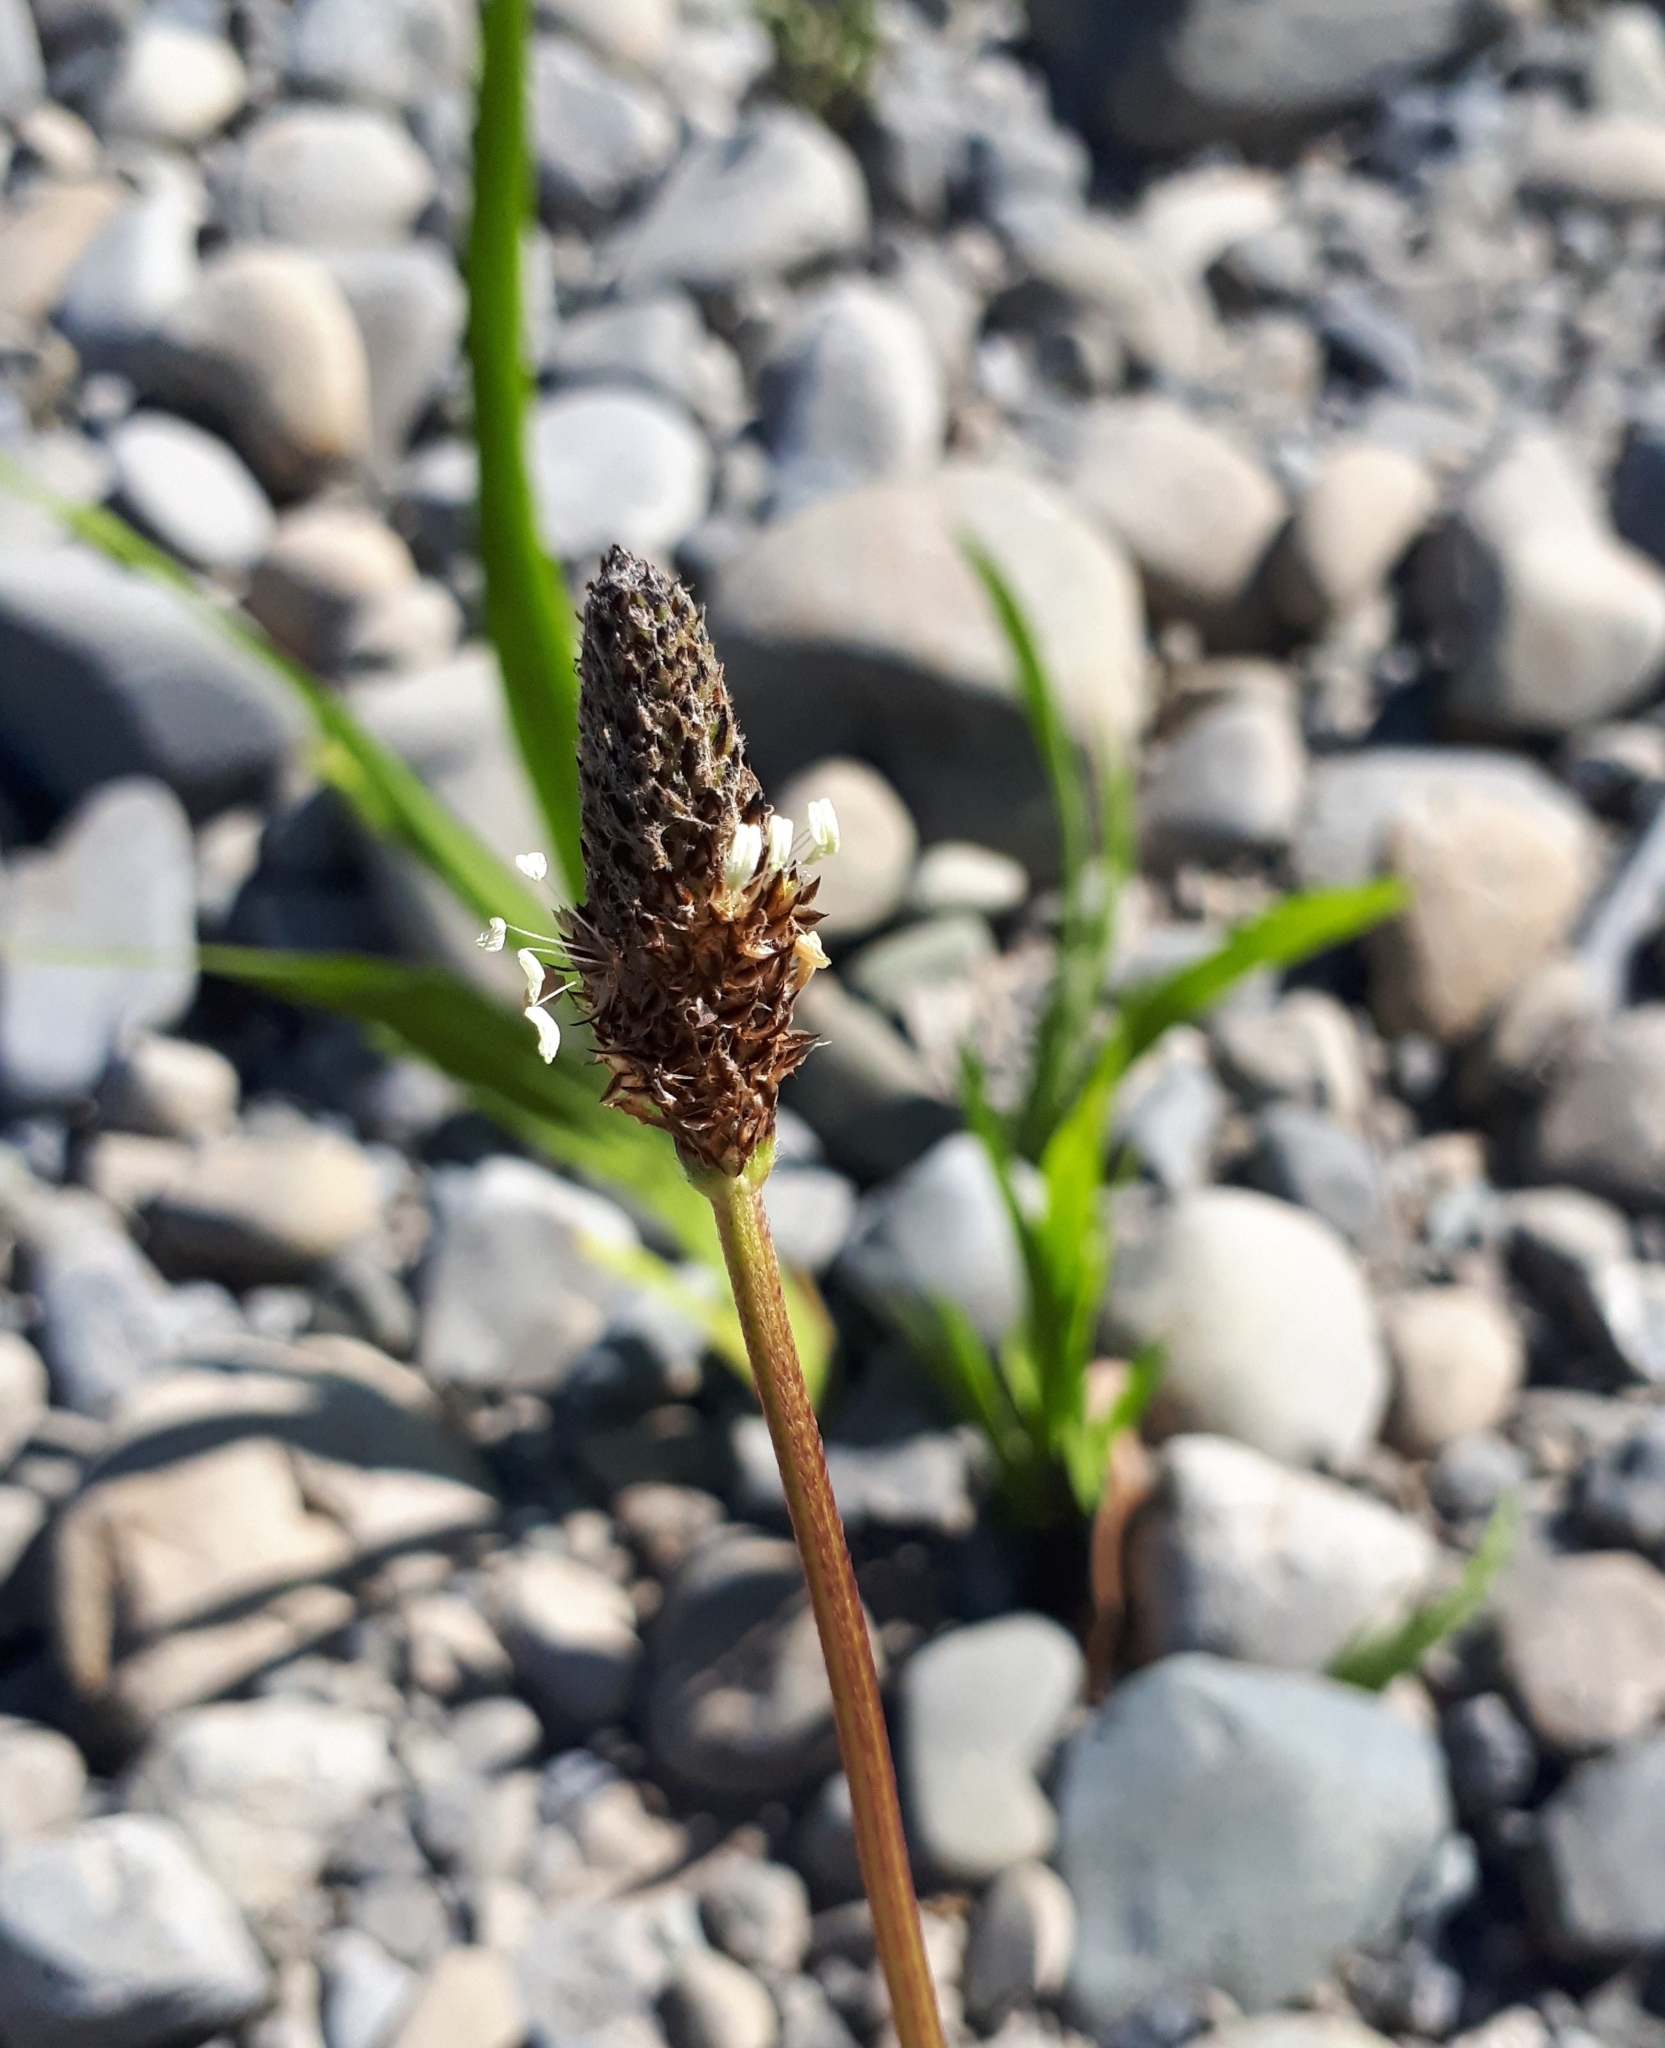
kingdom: Plantae
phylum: Tracheophyta
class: Magnoliopsida
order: Lamiales
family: Plantaginaceae
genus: Plantago
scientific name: Plantago lanceolata
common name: Ribwort plantain
